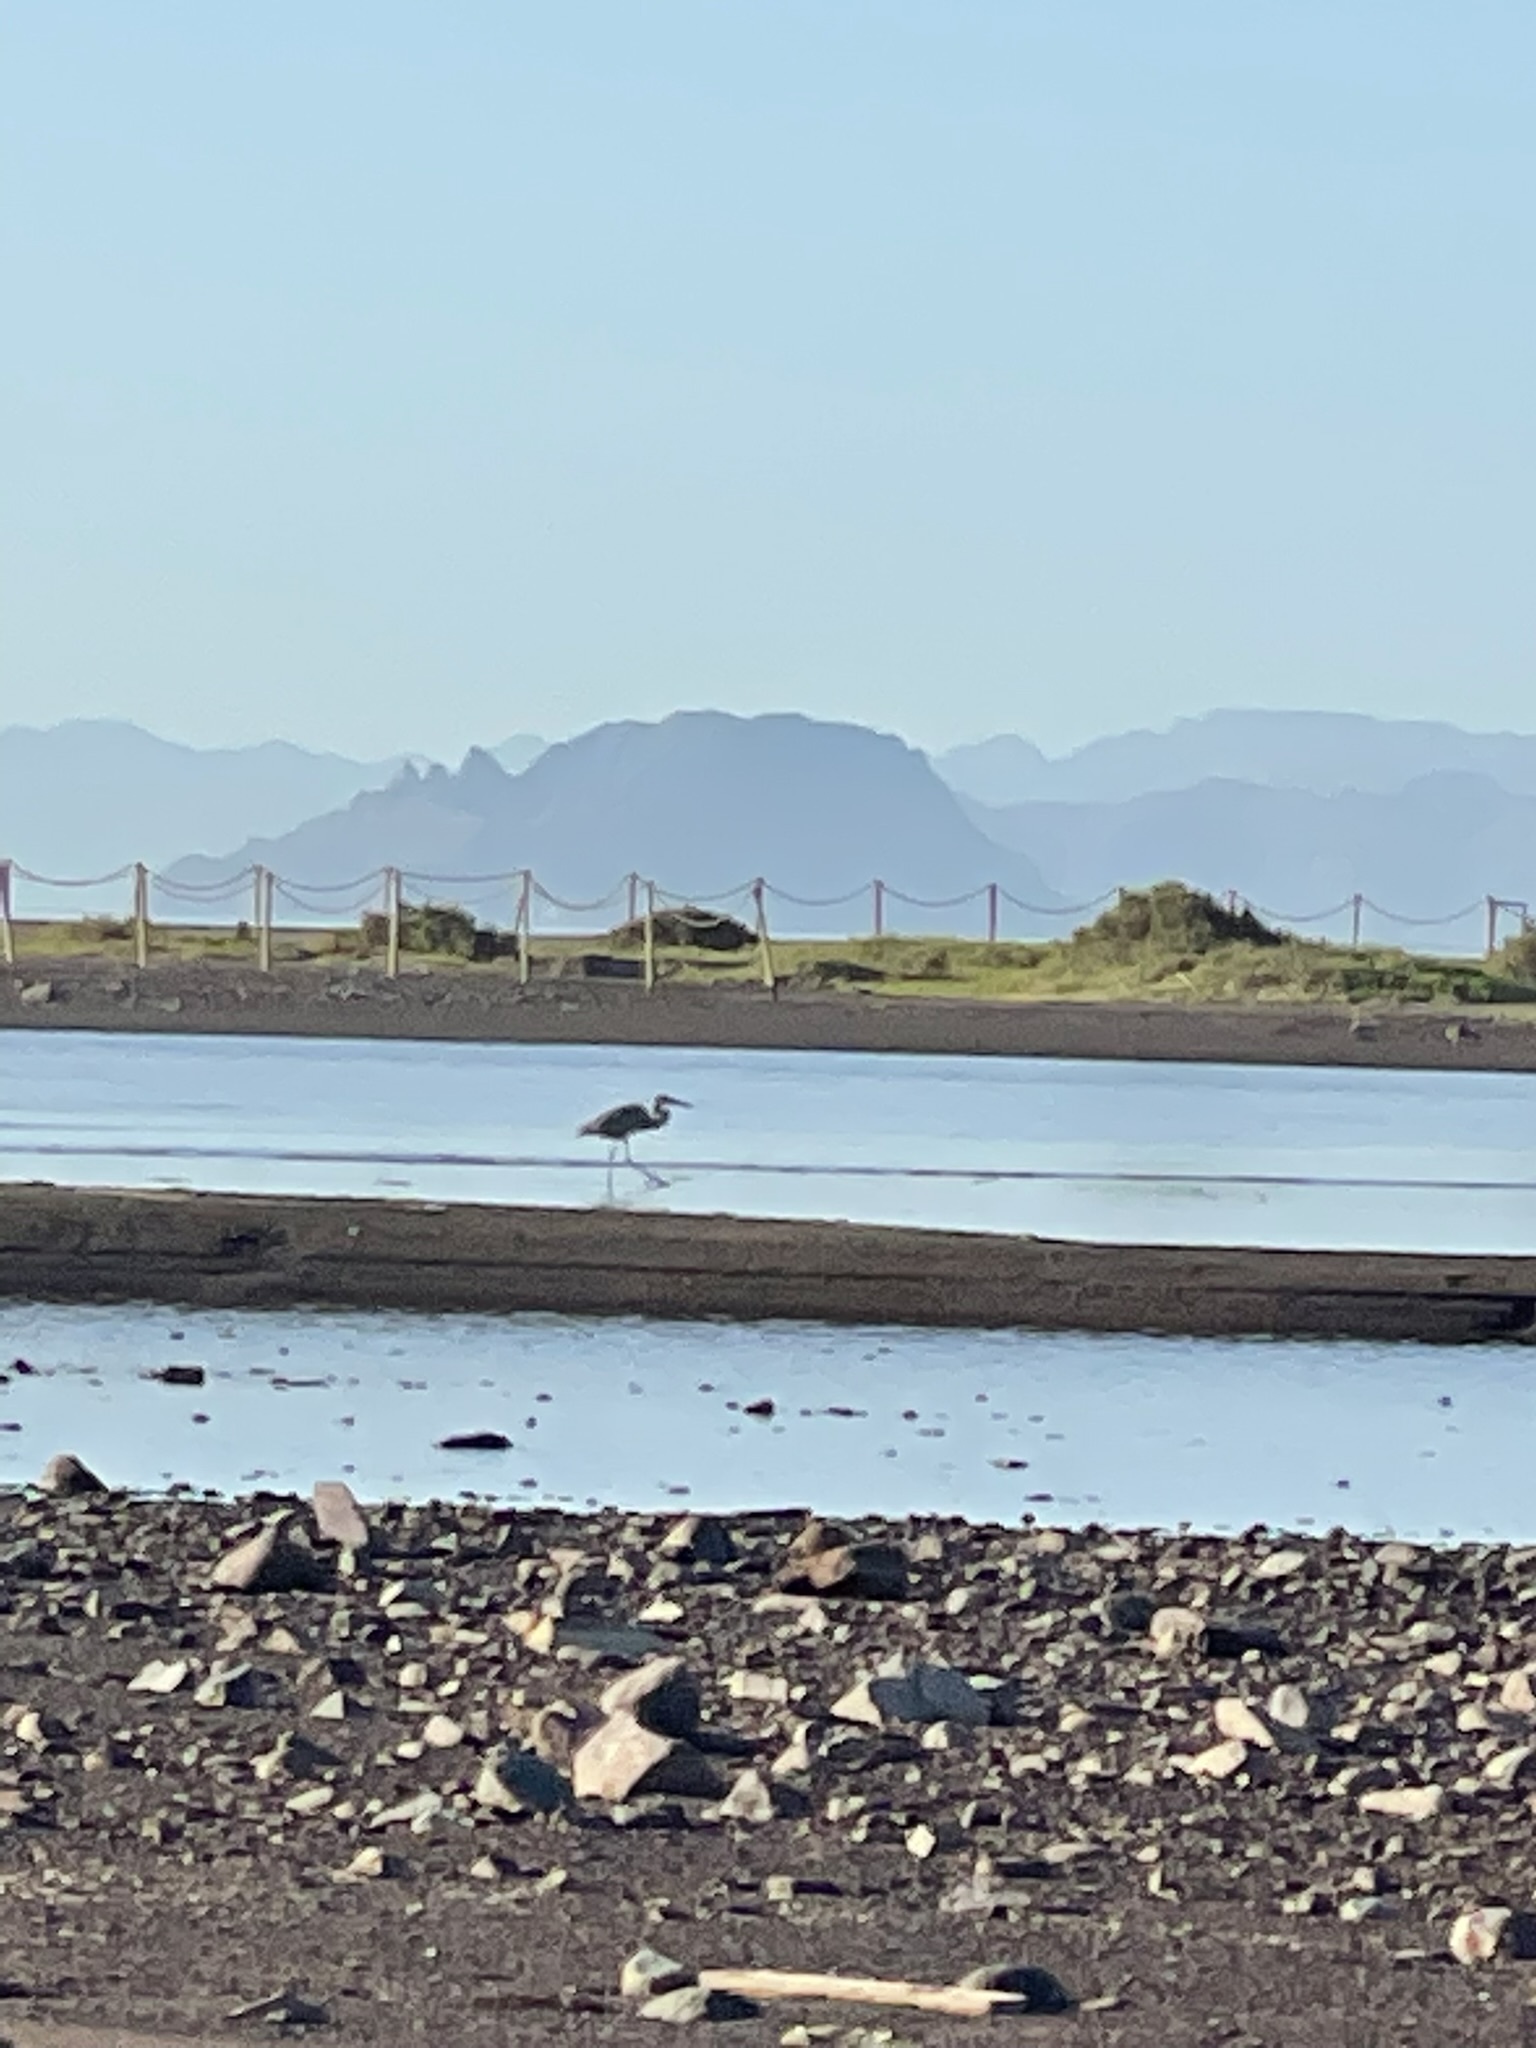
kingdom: Animalia
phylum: Chordata
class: Aves
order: Pelecaniformes
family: Ardeidae
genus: Ardea
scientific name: Ardea herodias
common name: Great blue heron
